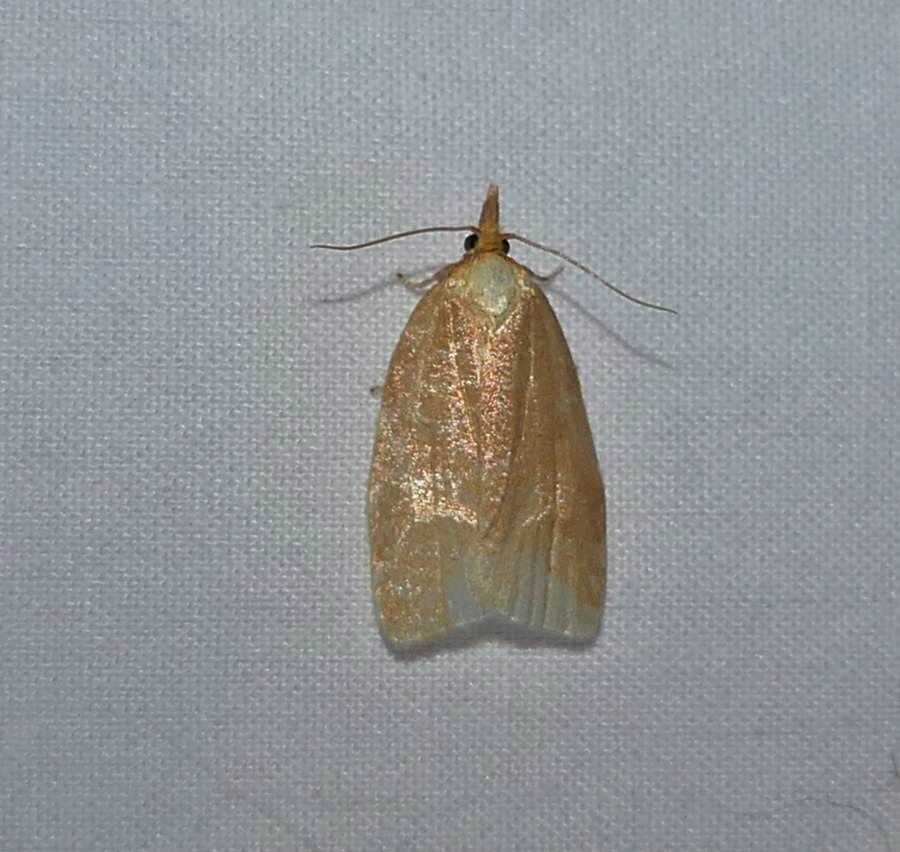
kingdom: Animalia
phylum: Arthropoda
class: Insecta
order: Lepidoptera
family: Tortricidae
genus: Cenopis
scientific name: Cenopis pettitana
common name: Maple-basswood leafroller moth
